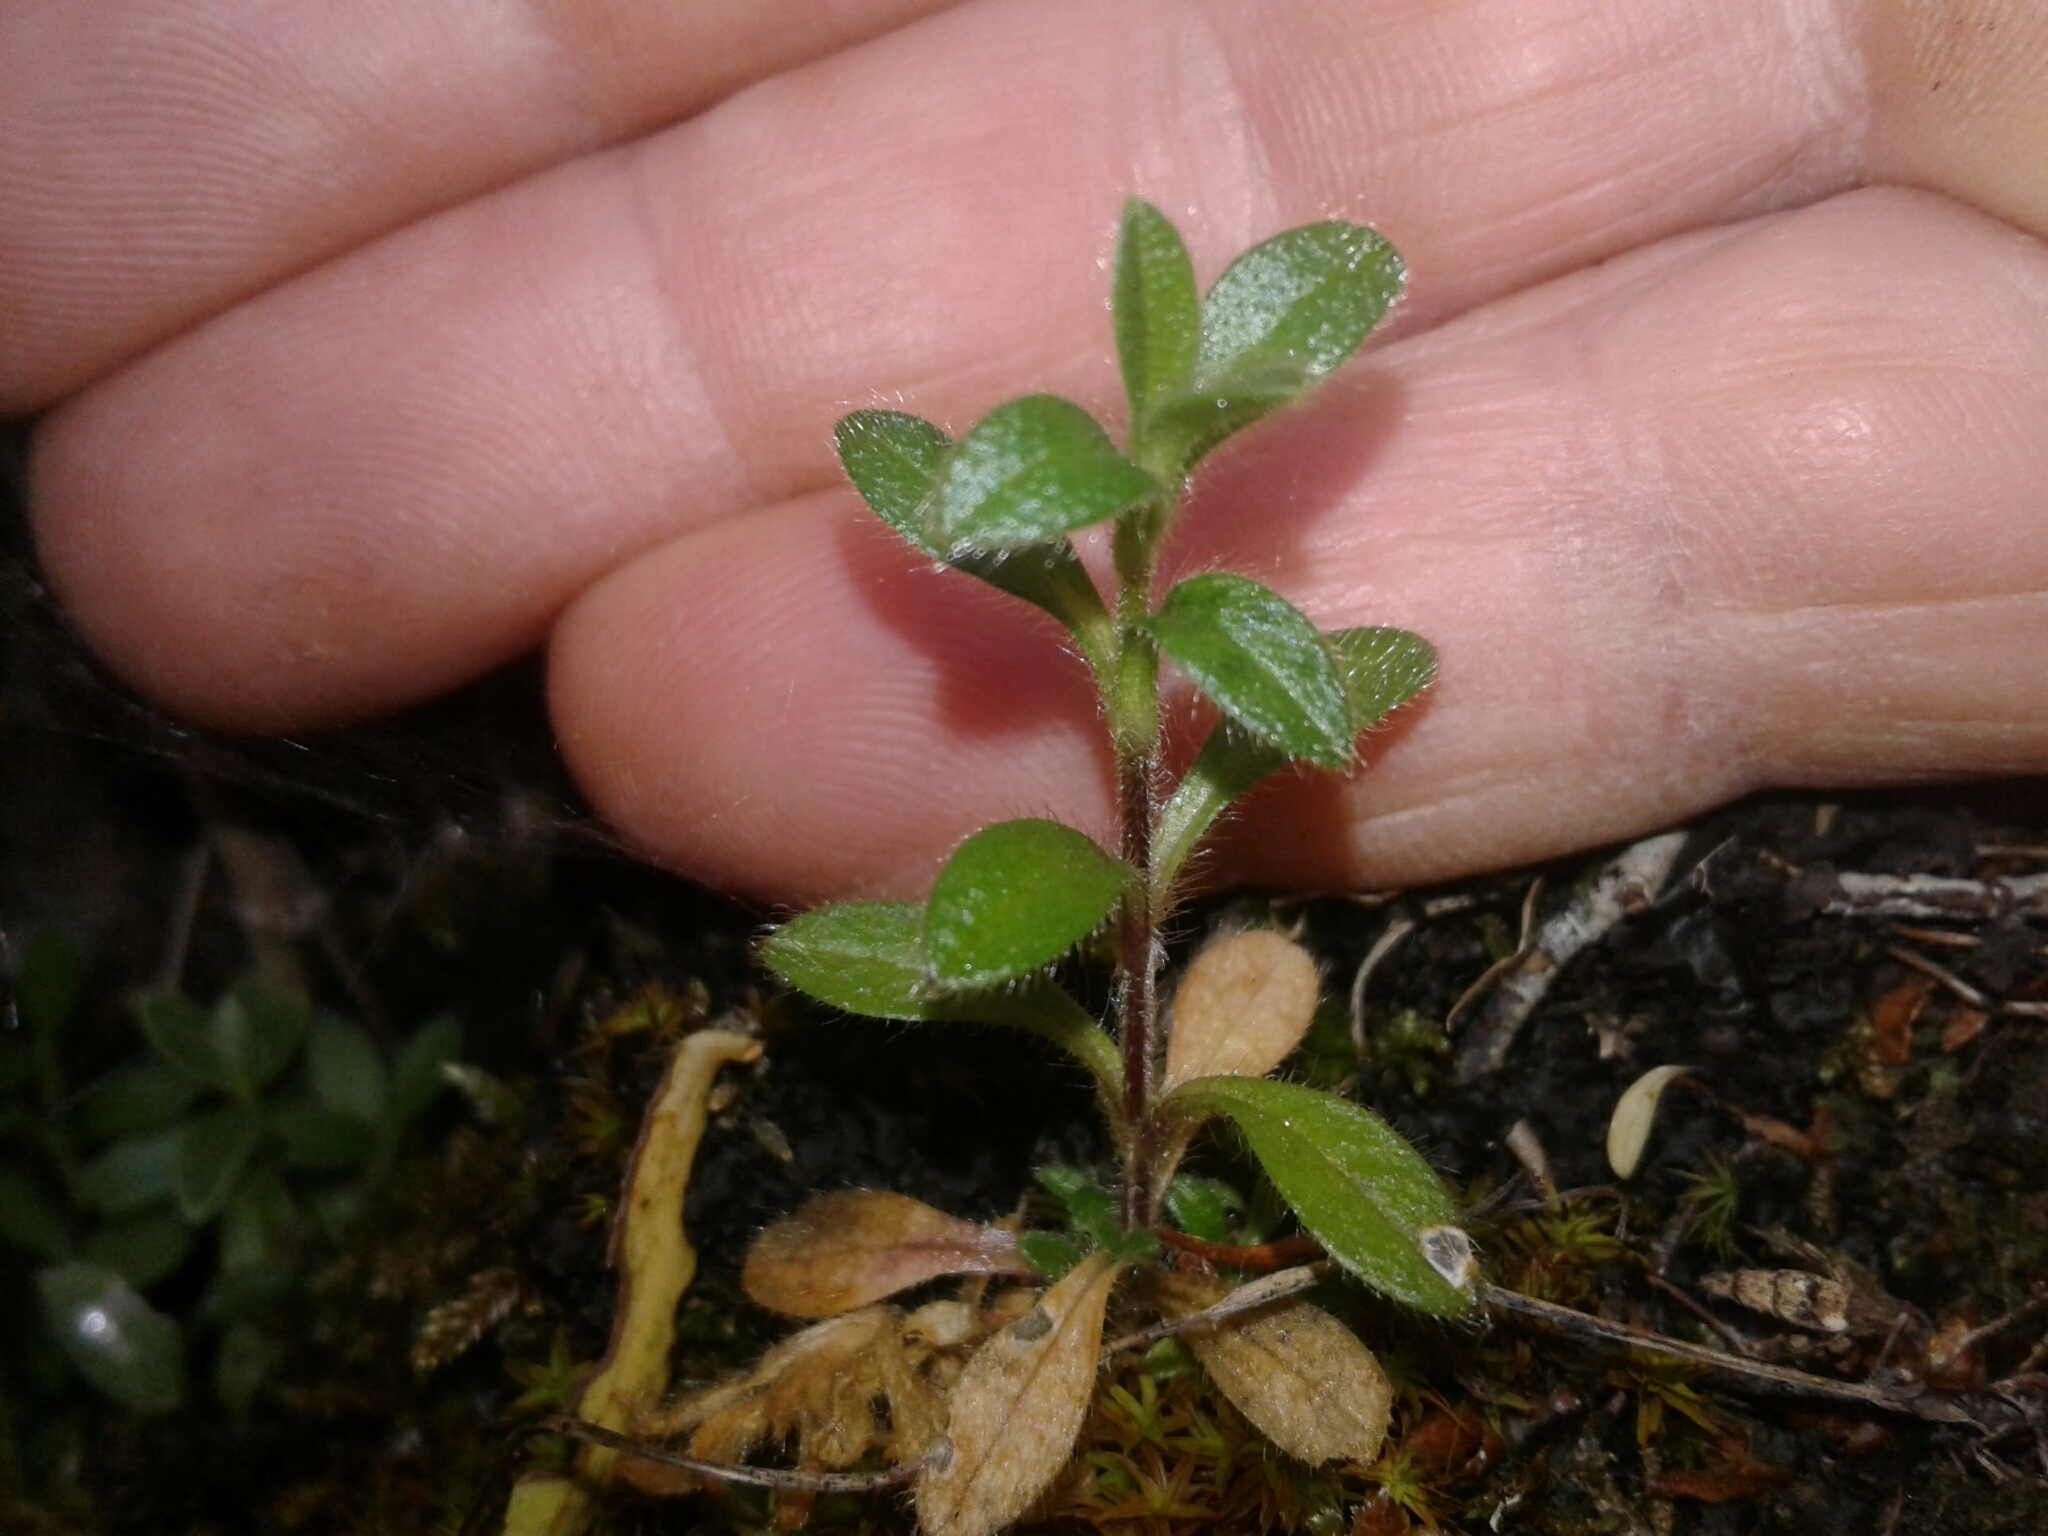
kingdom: Plantae
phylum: Tracheophyta
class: Magnoliopsida
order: Caryophyllales
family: Caryophyllaceae
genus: Cerastium
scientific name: Cerastium fontanum
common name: Common mouse-ear
